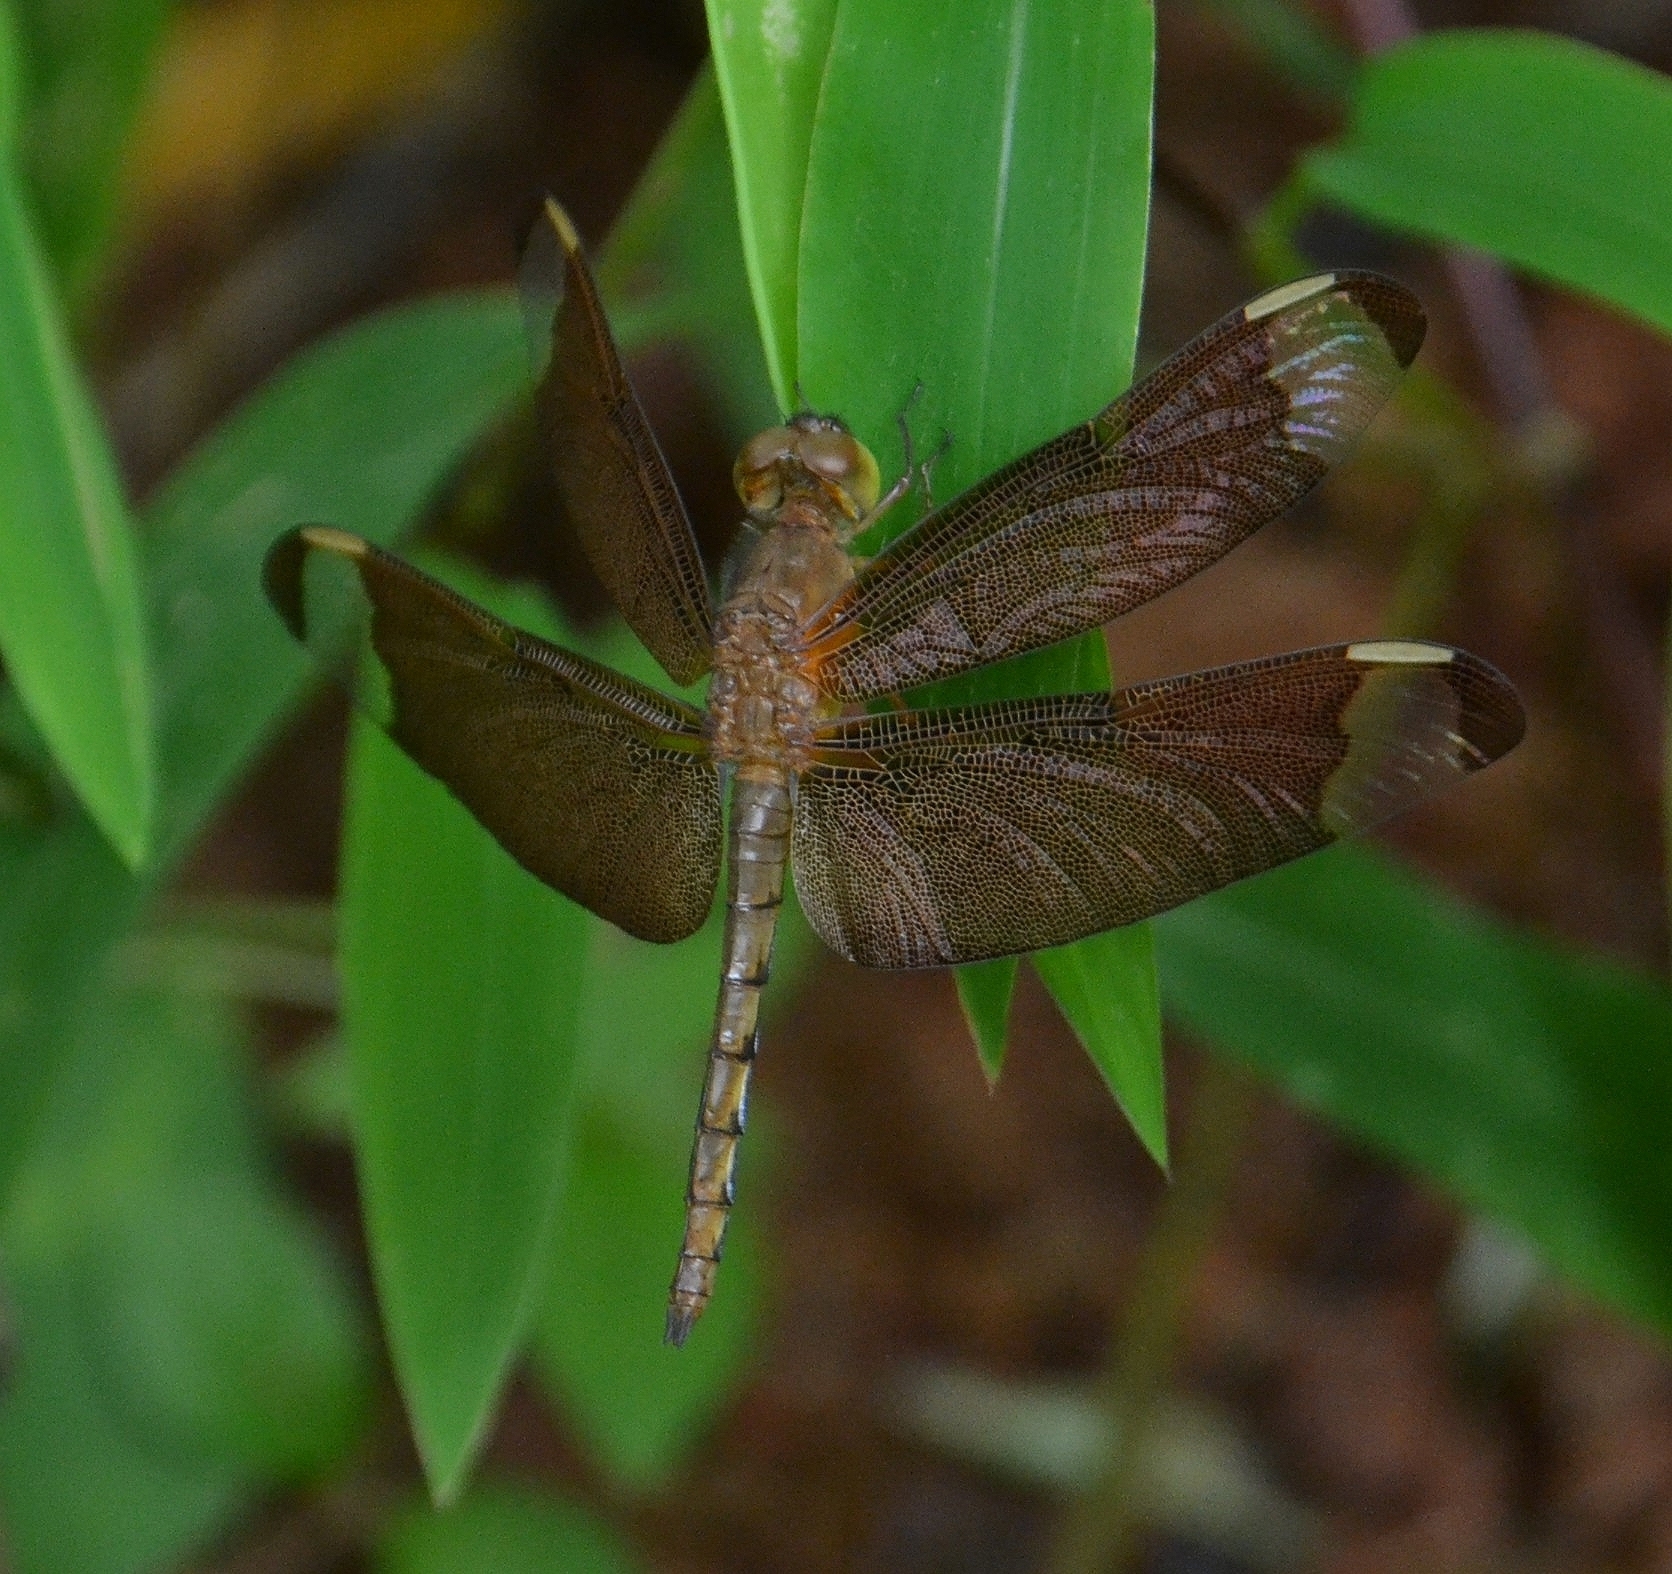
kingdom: Animalia
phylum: Arthropoda
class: Insecta
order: Odonata
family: Libellulidae
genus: Neurothemis
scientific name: Neurothemis fulvia
